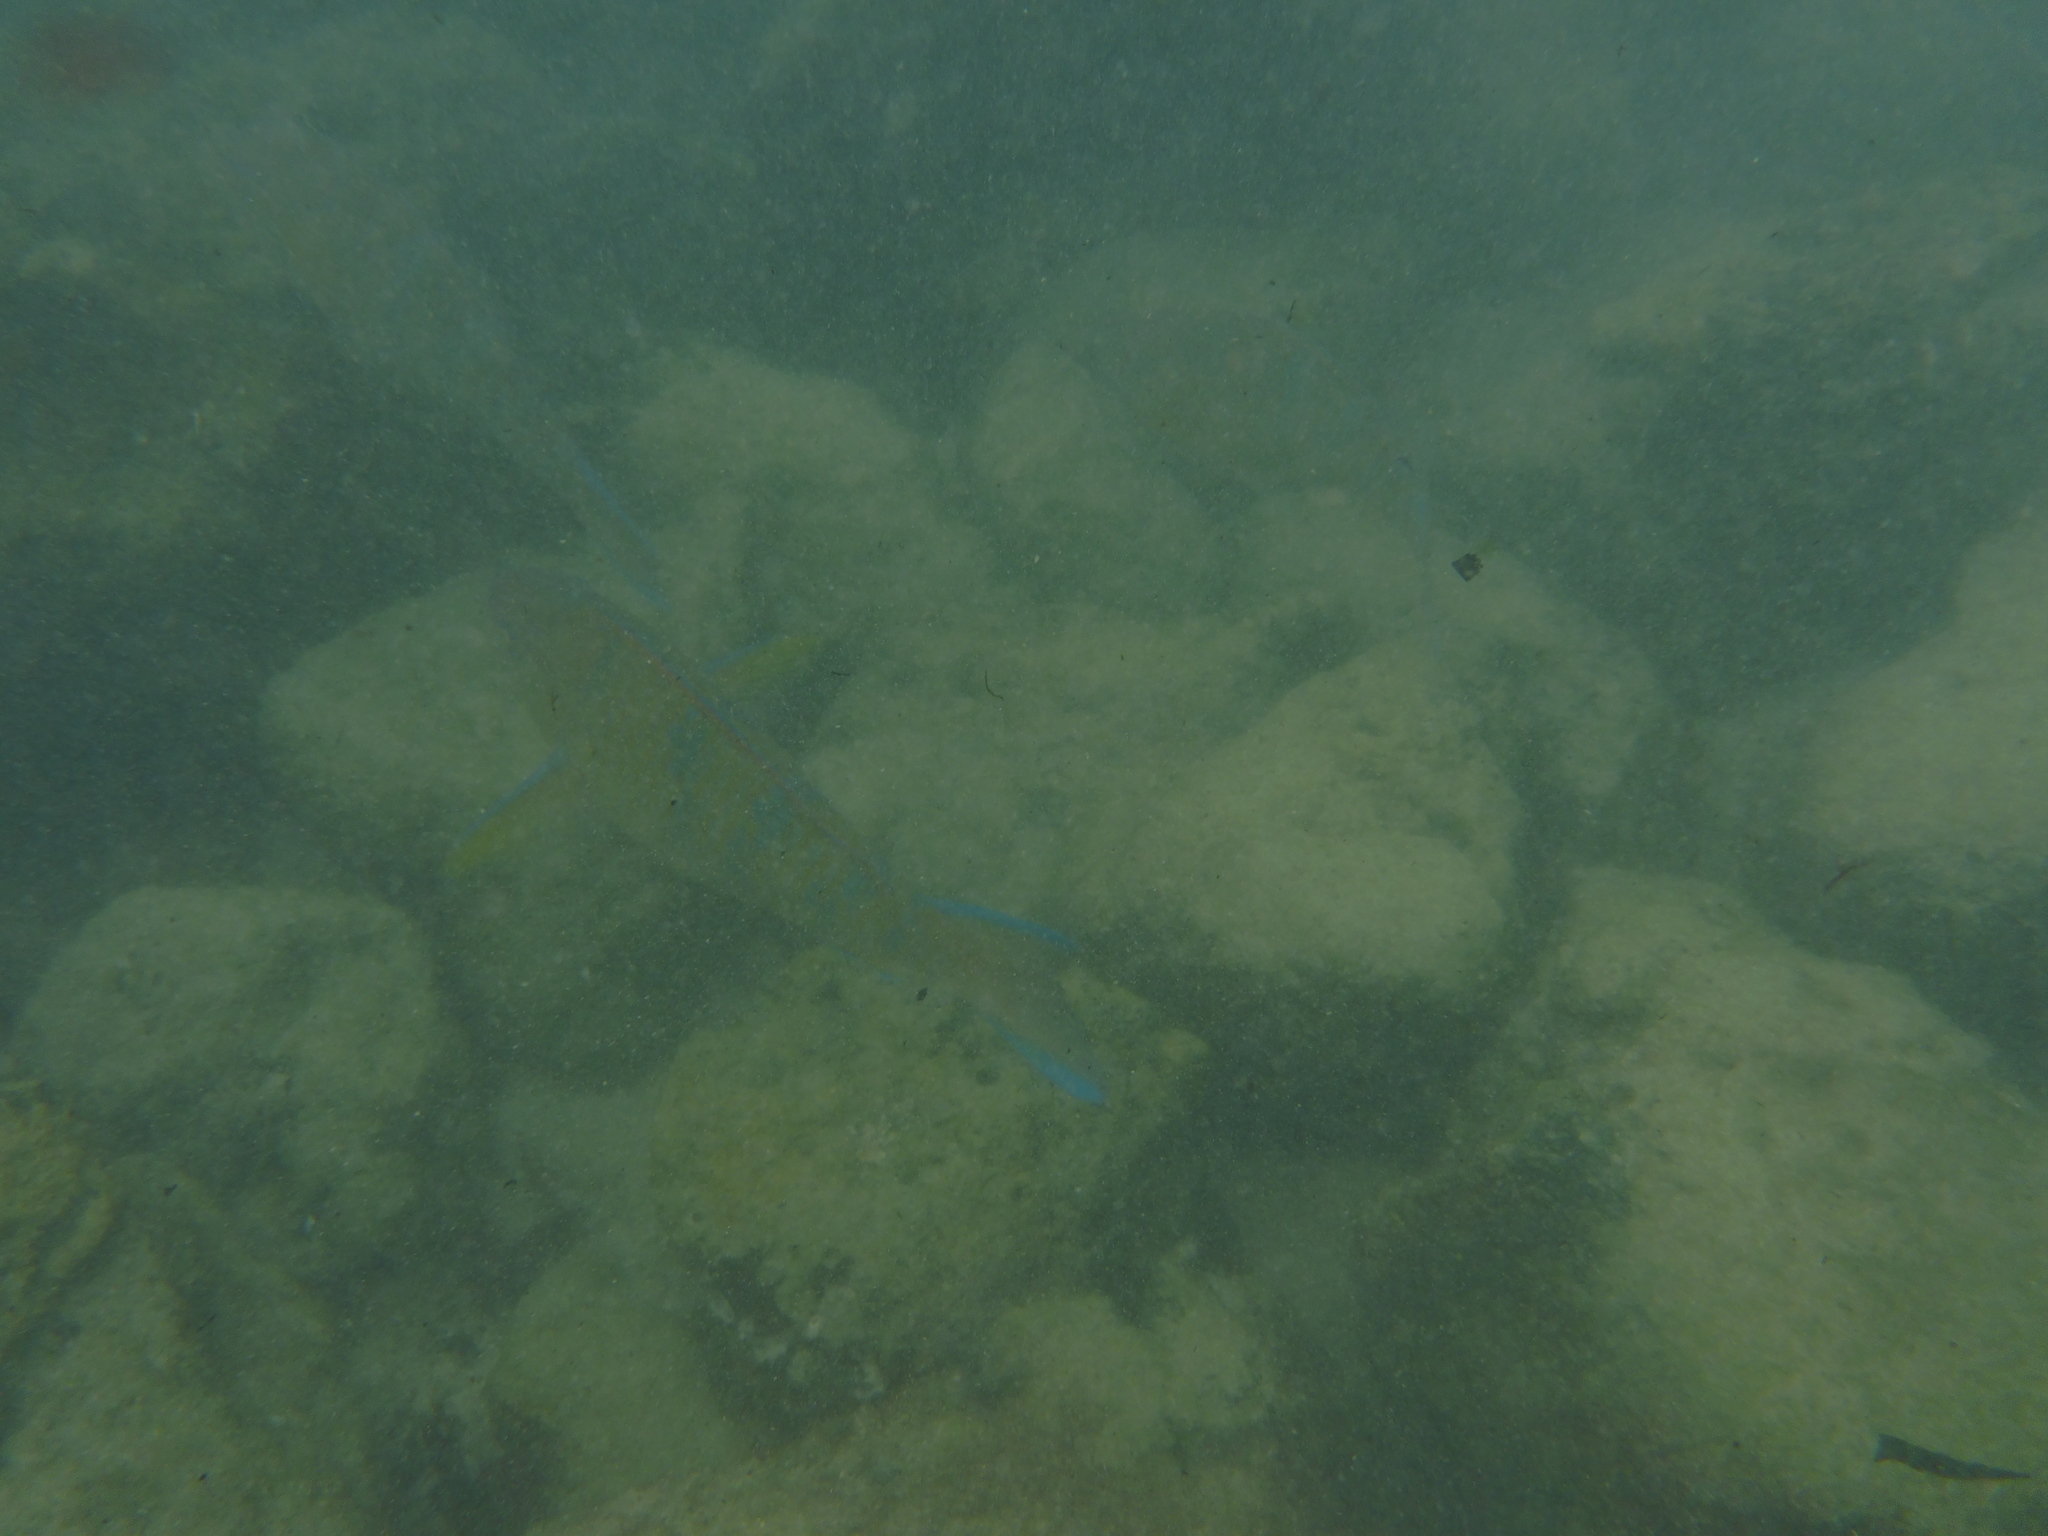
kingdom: Animalia
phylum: Chordata
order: Perciformes
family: Scaridae
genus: Scarus
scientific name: Scarus ghobban
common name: Blue-barred parrotfish
